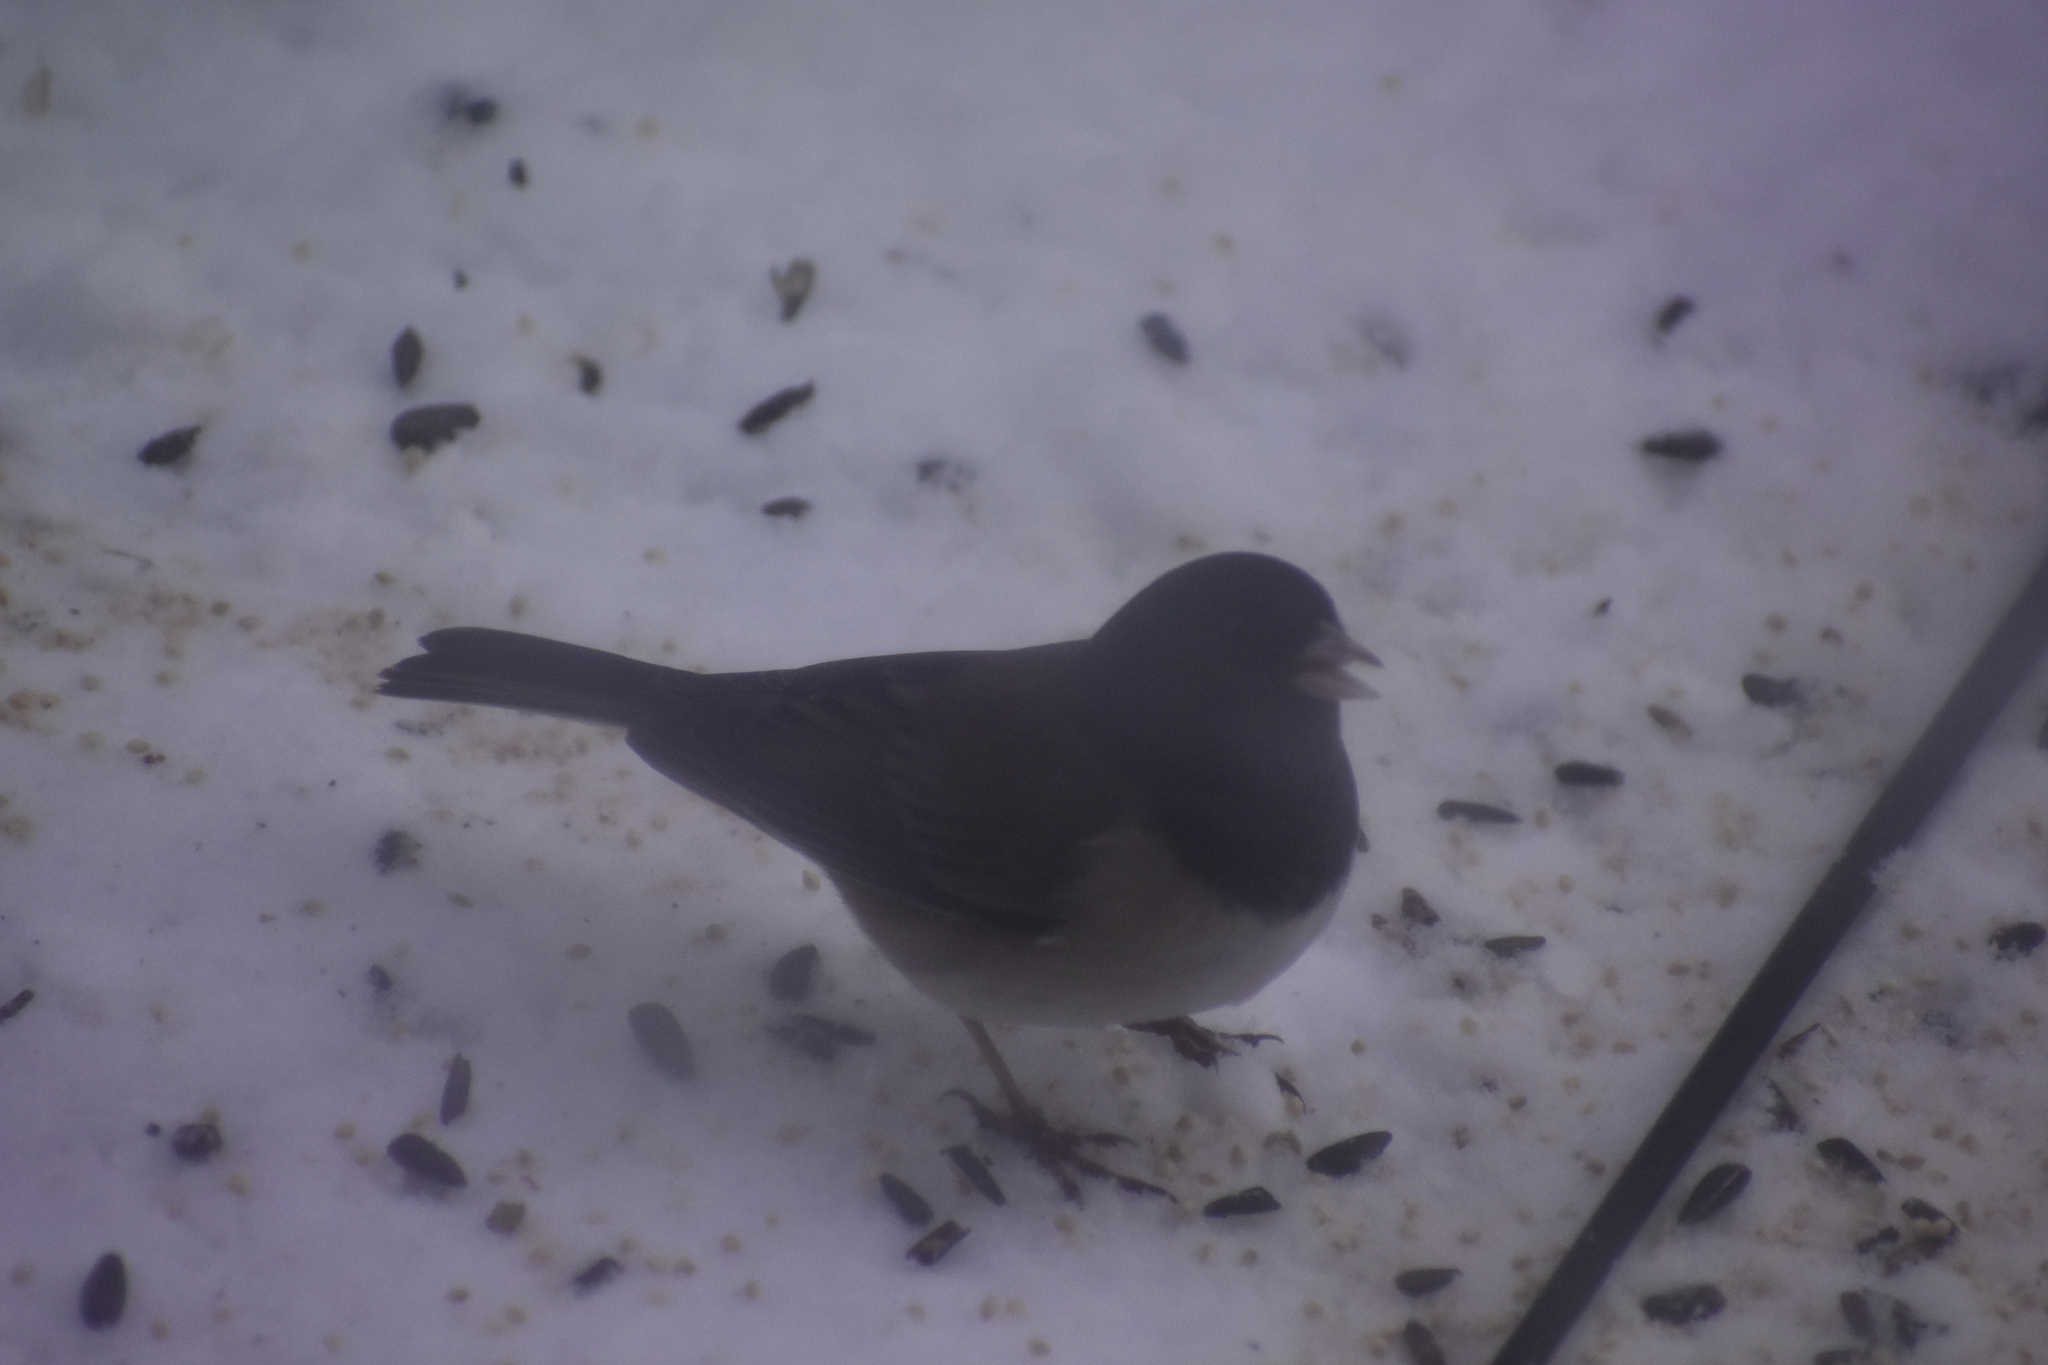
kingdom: Animalia
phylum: Chordata
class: Aves
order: Passeriformes
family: Passerellidae
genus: Junco
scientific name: Junco hyemalis
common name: Dark-eyed junco
